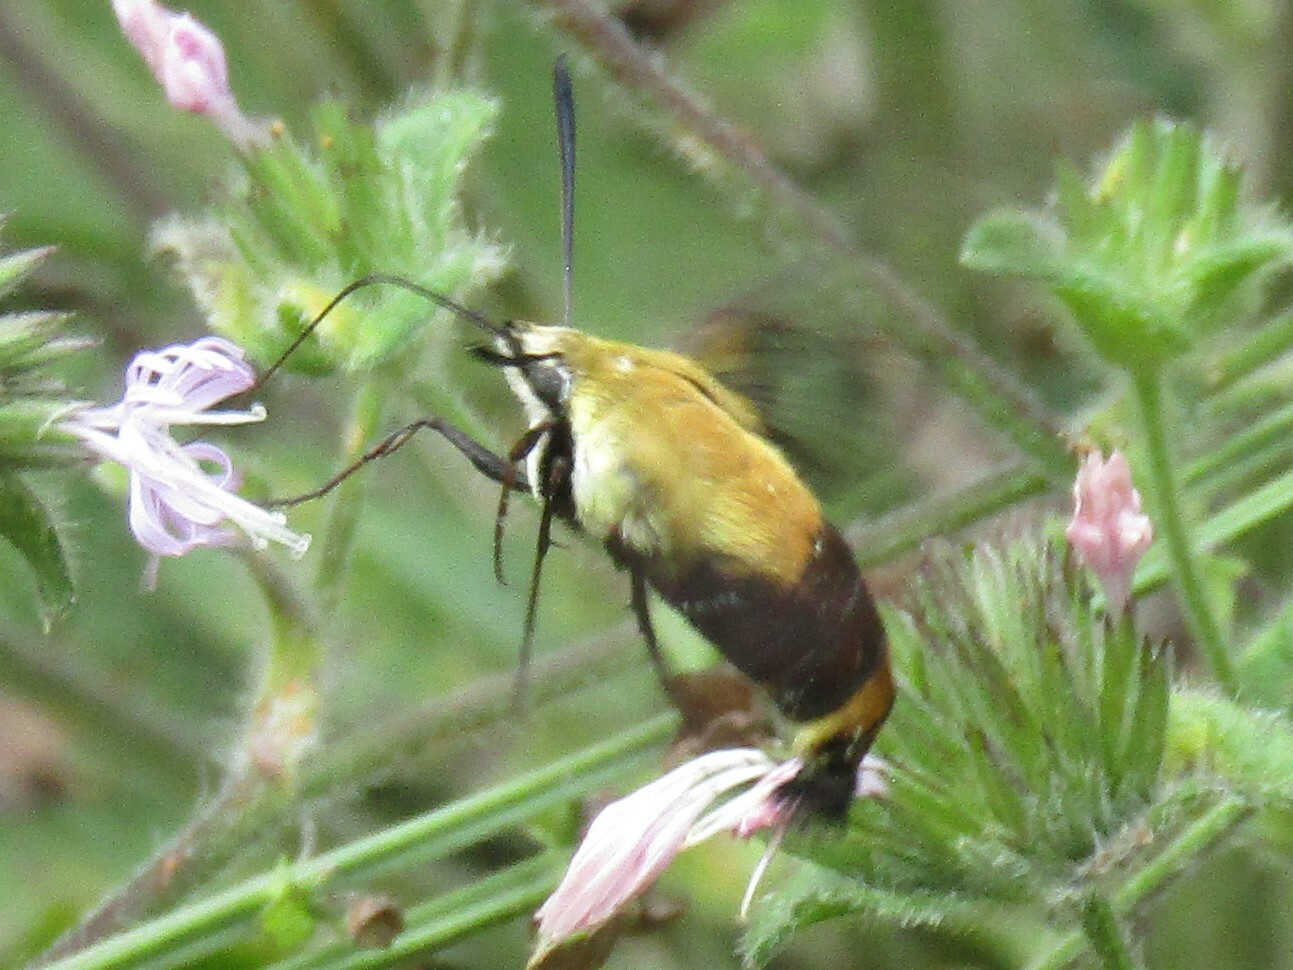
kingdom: Animalia
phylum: Arthropoda
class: Insecta
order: Lepidoptera
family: Sphingidae
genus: Hemaris
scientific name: Hemaris diffinis
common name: Bumblebee moth
